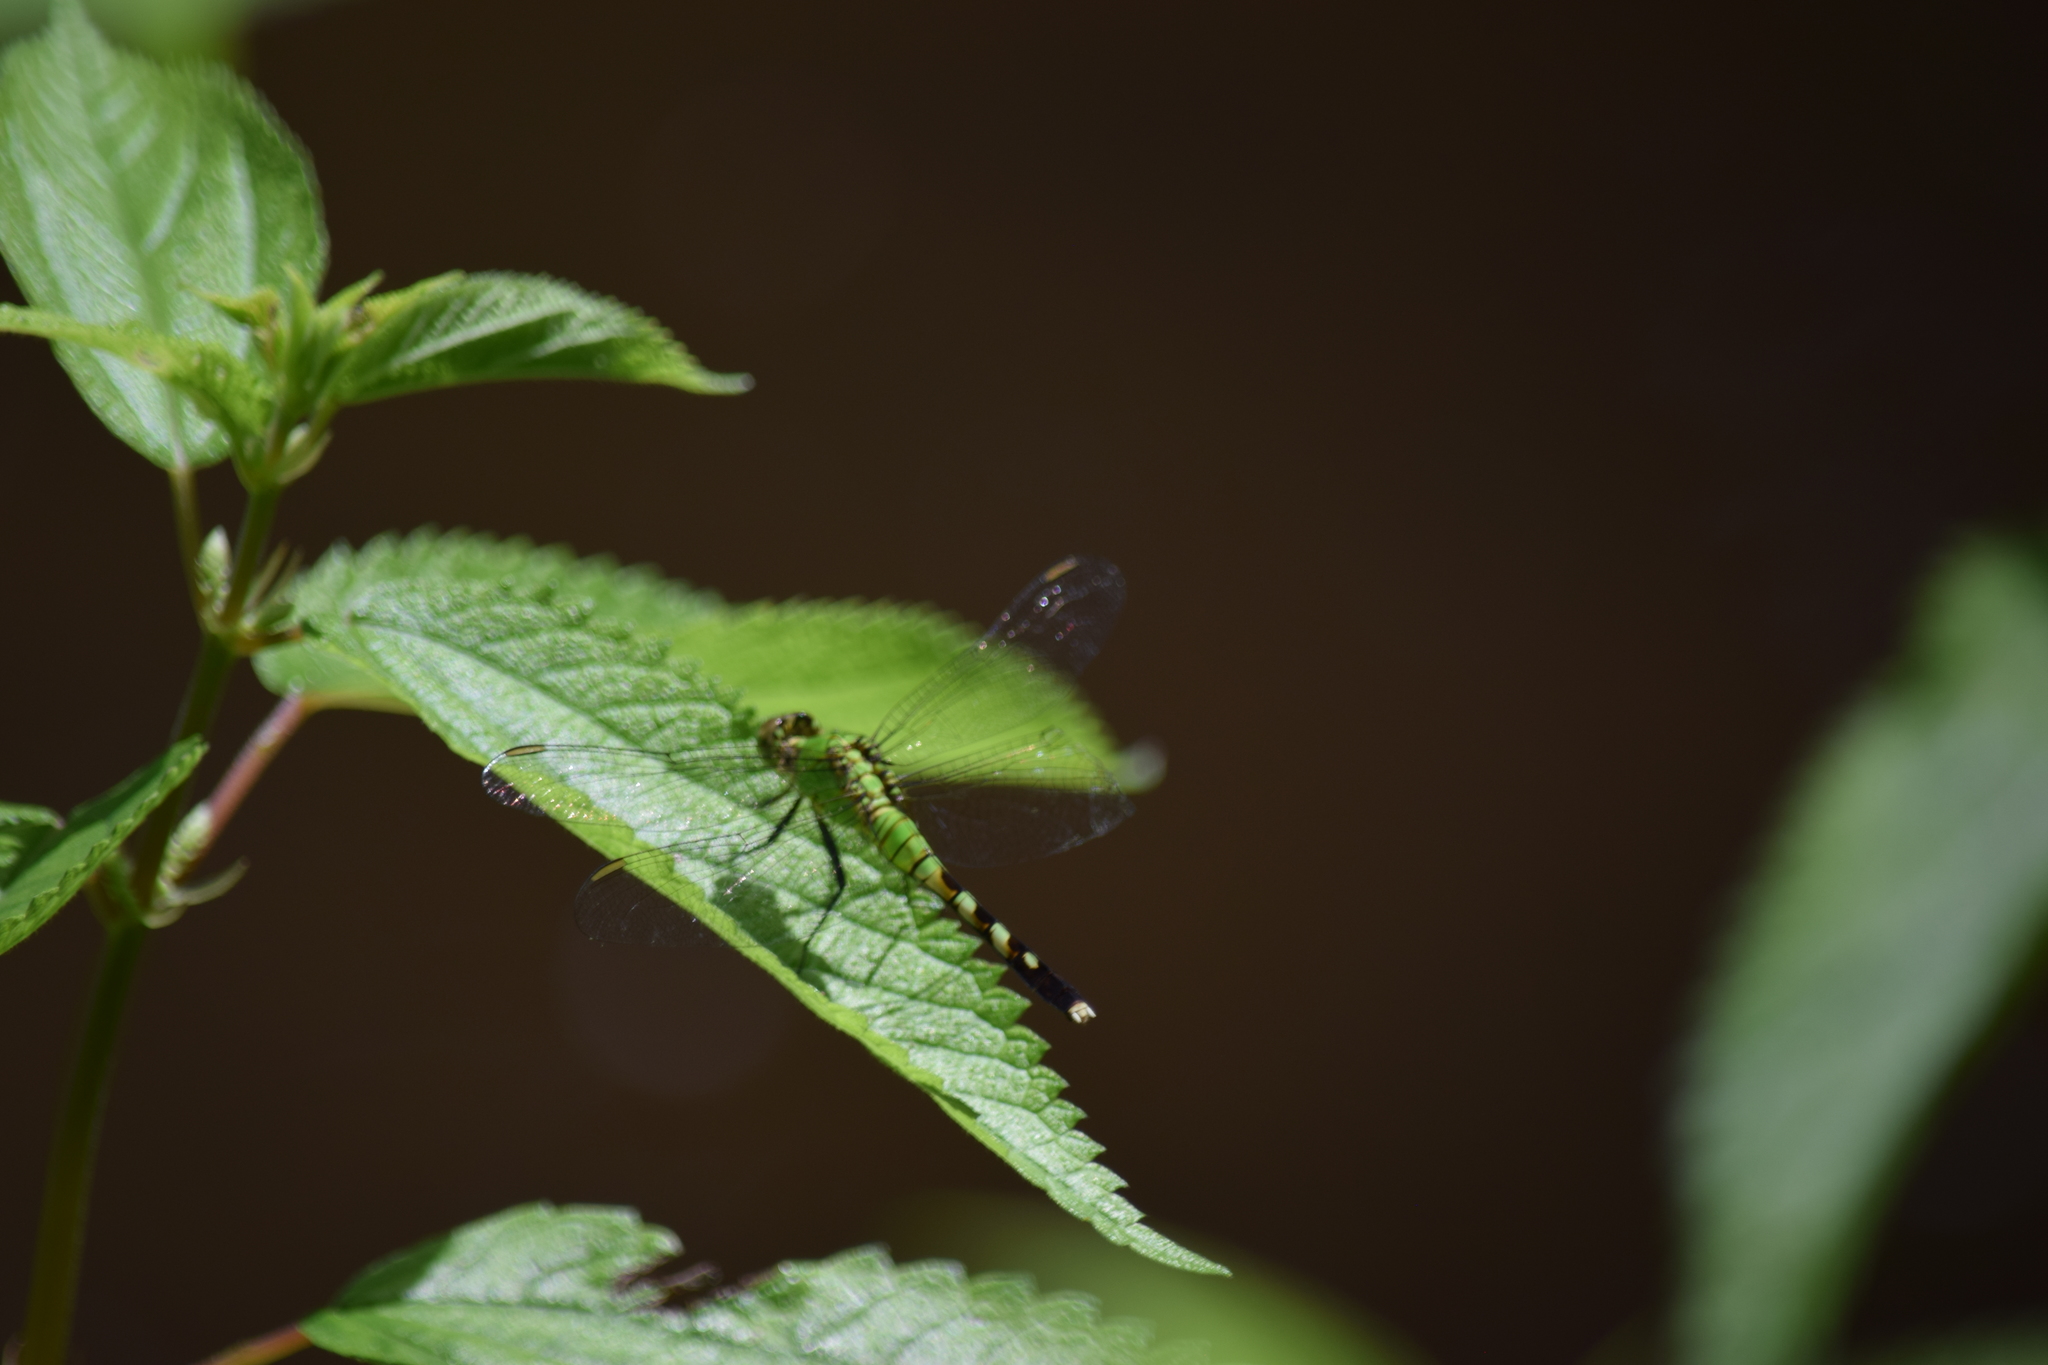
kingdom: Animalia
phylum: Arthropoda
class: Insecta
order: Odonata
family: Libellulidae
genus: Erythemis
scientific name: Erythemis simplicicollis
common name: Eastern pondhawk
